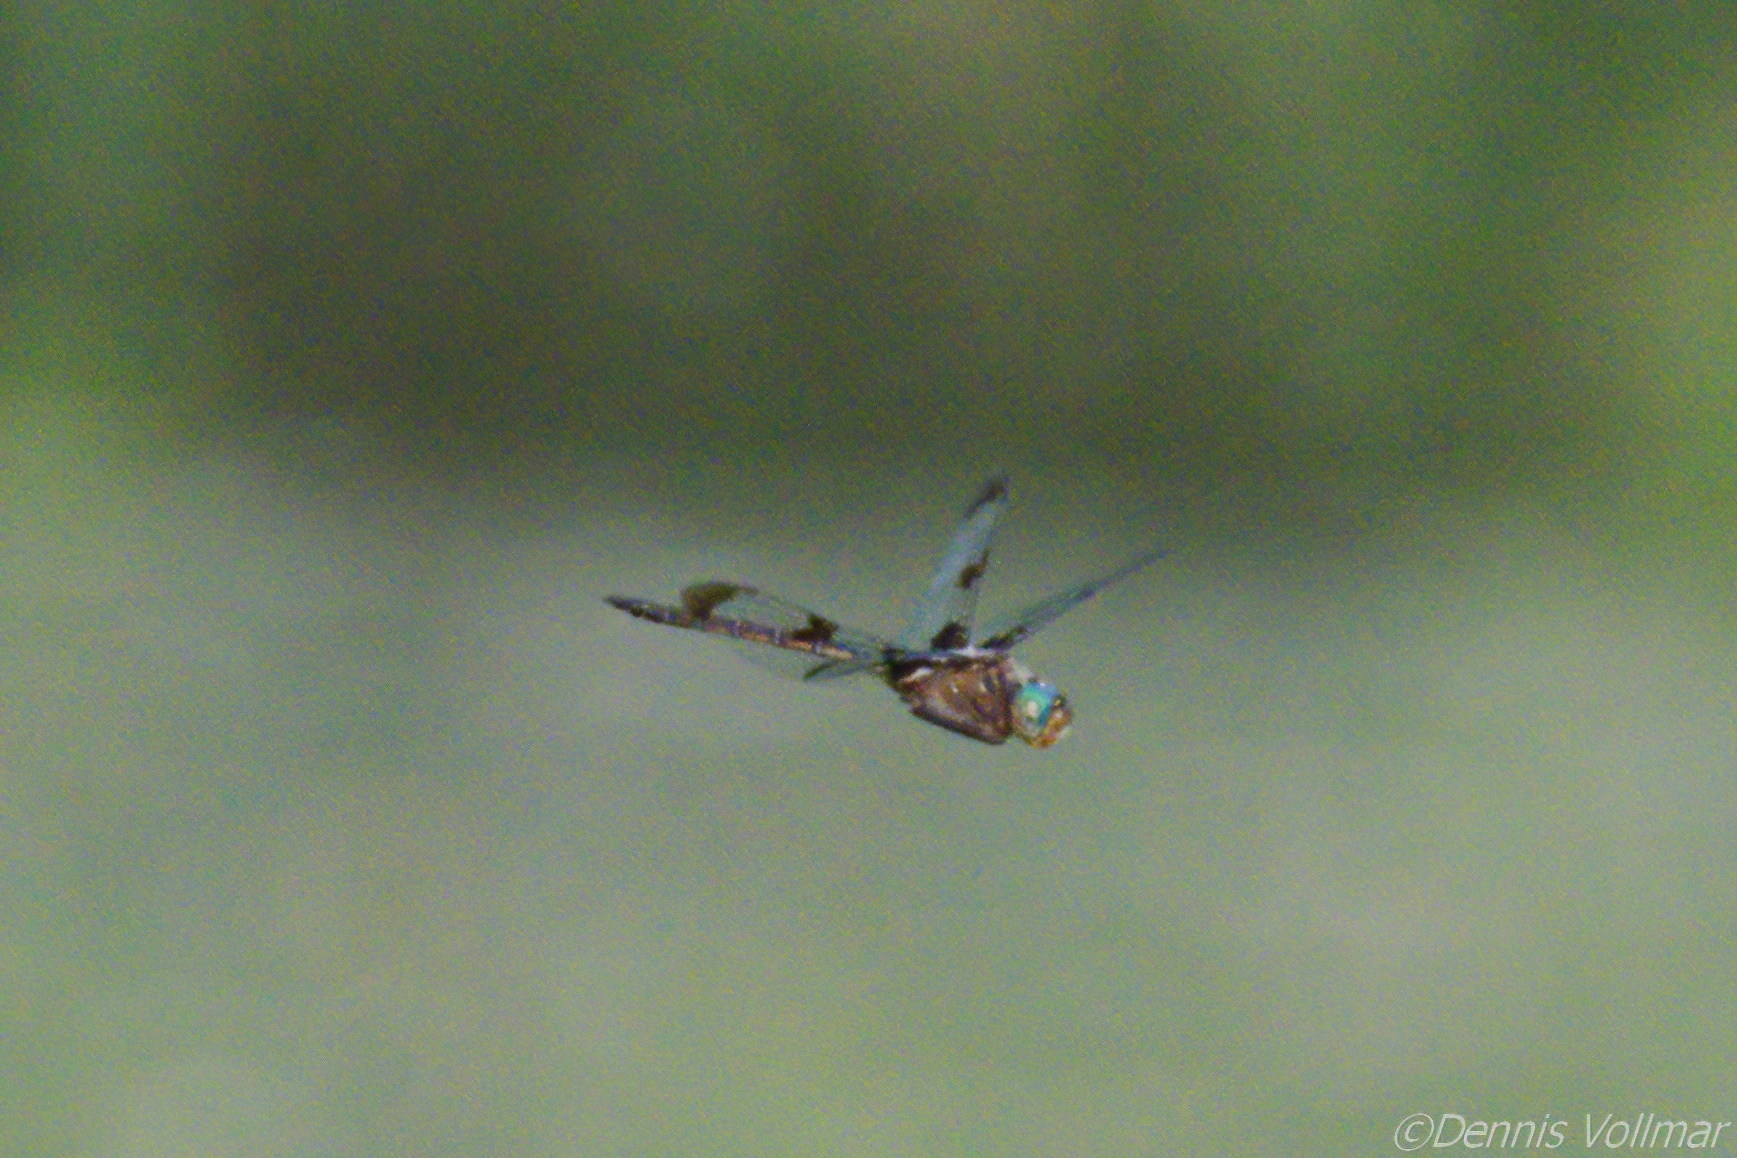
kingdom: Animalia
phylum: Arthropoda
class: Insecta
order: Odonata
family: Corduliidae
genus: Epitheca
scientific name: Epitheca princeps
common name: Prince baskettail
